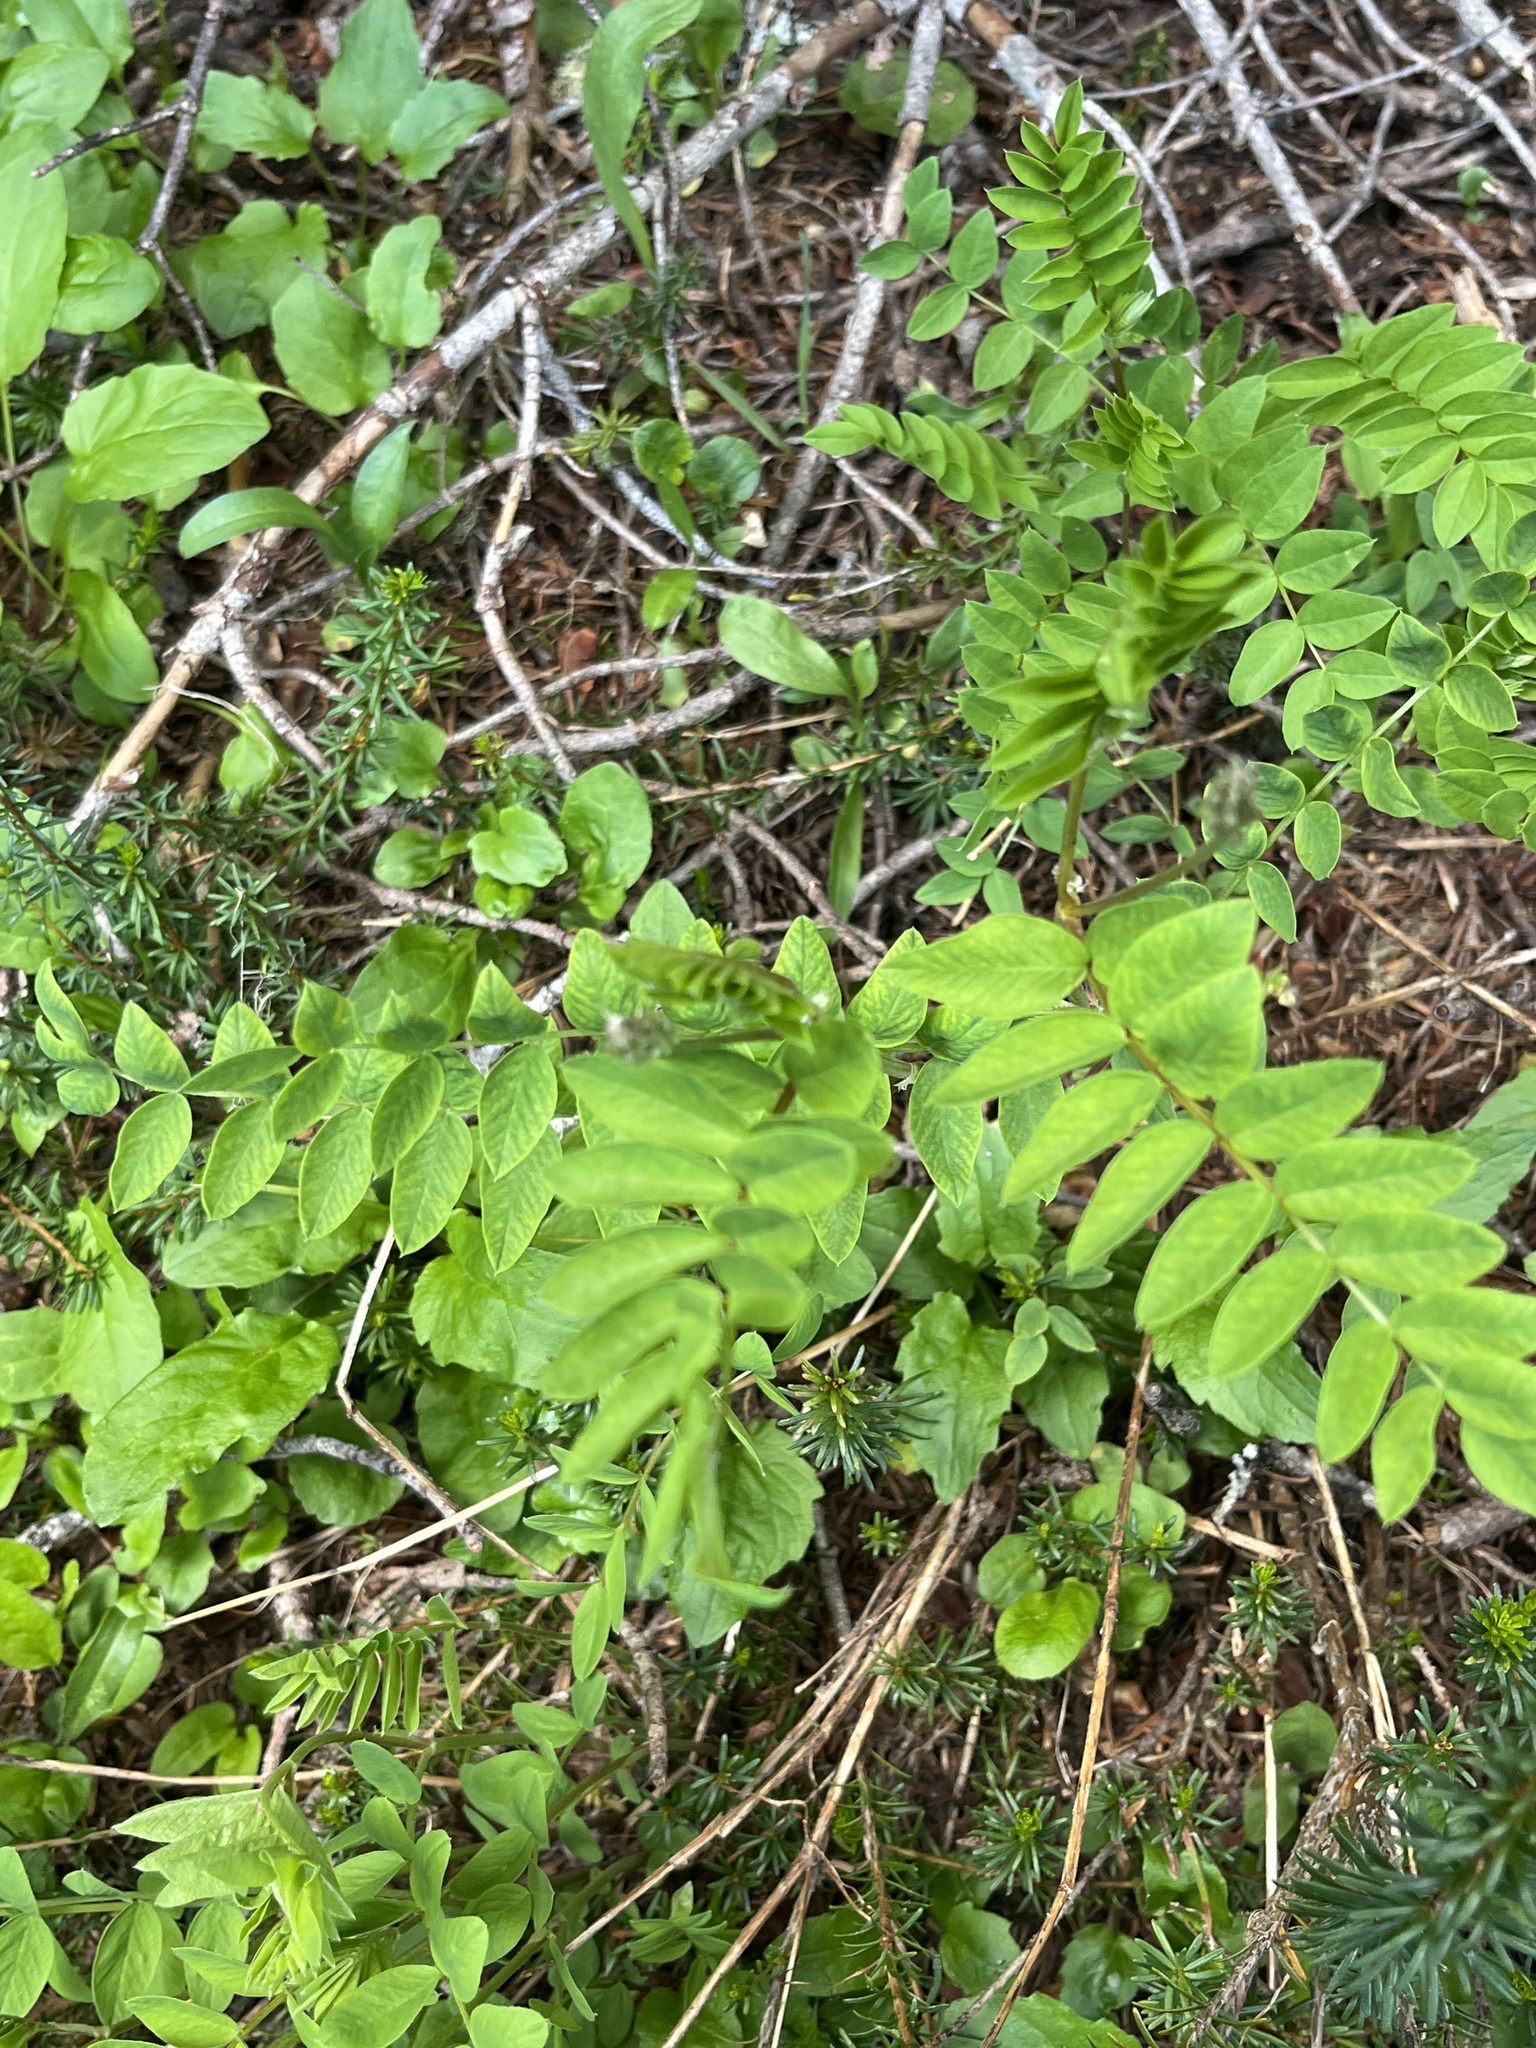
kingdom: Plantae
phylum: Tracheophyta
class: Magnoliopsida
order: Fabales
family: Fabaceae
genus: Hedysarum
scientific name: Hedysarum occidentale
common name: Western hedysarum
